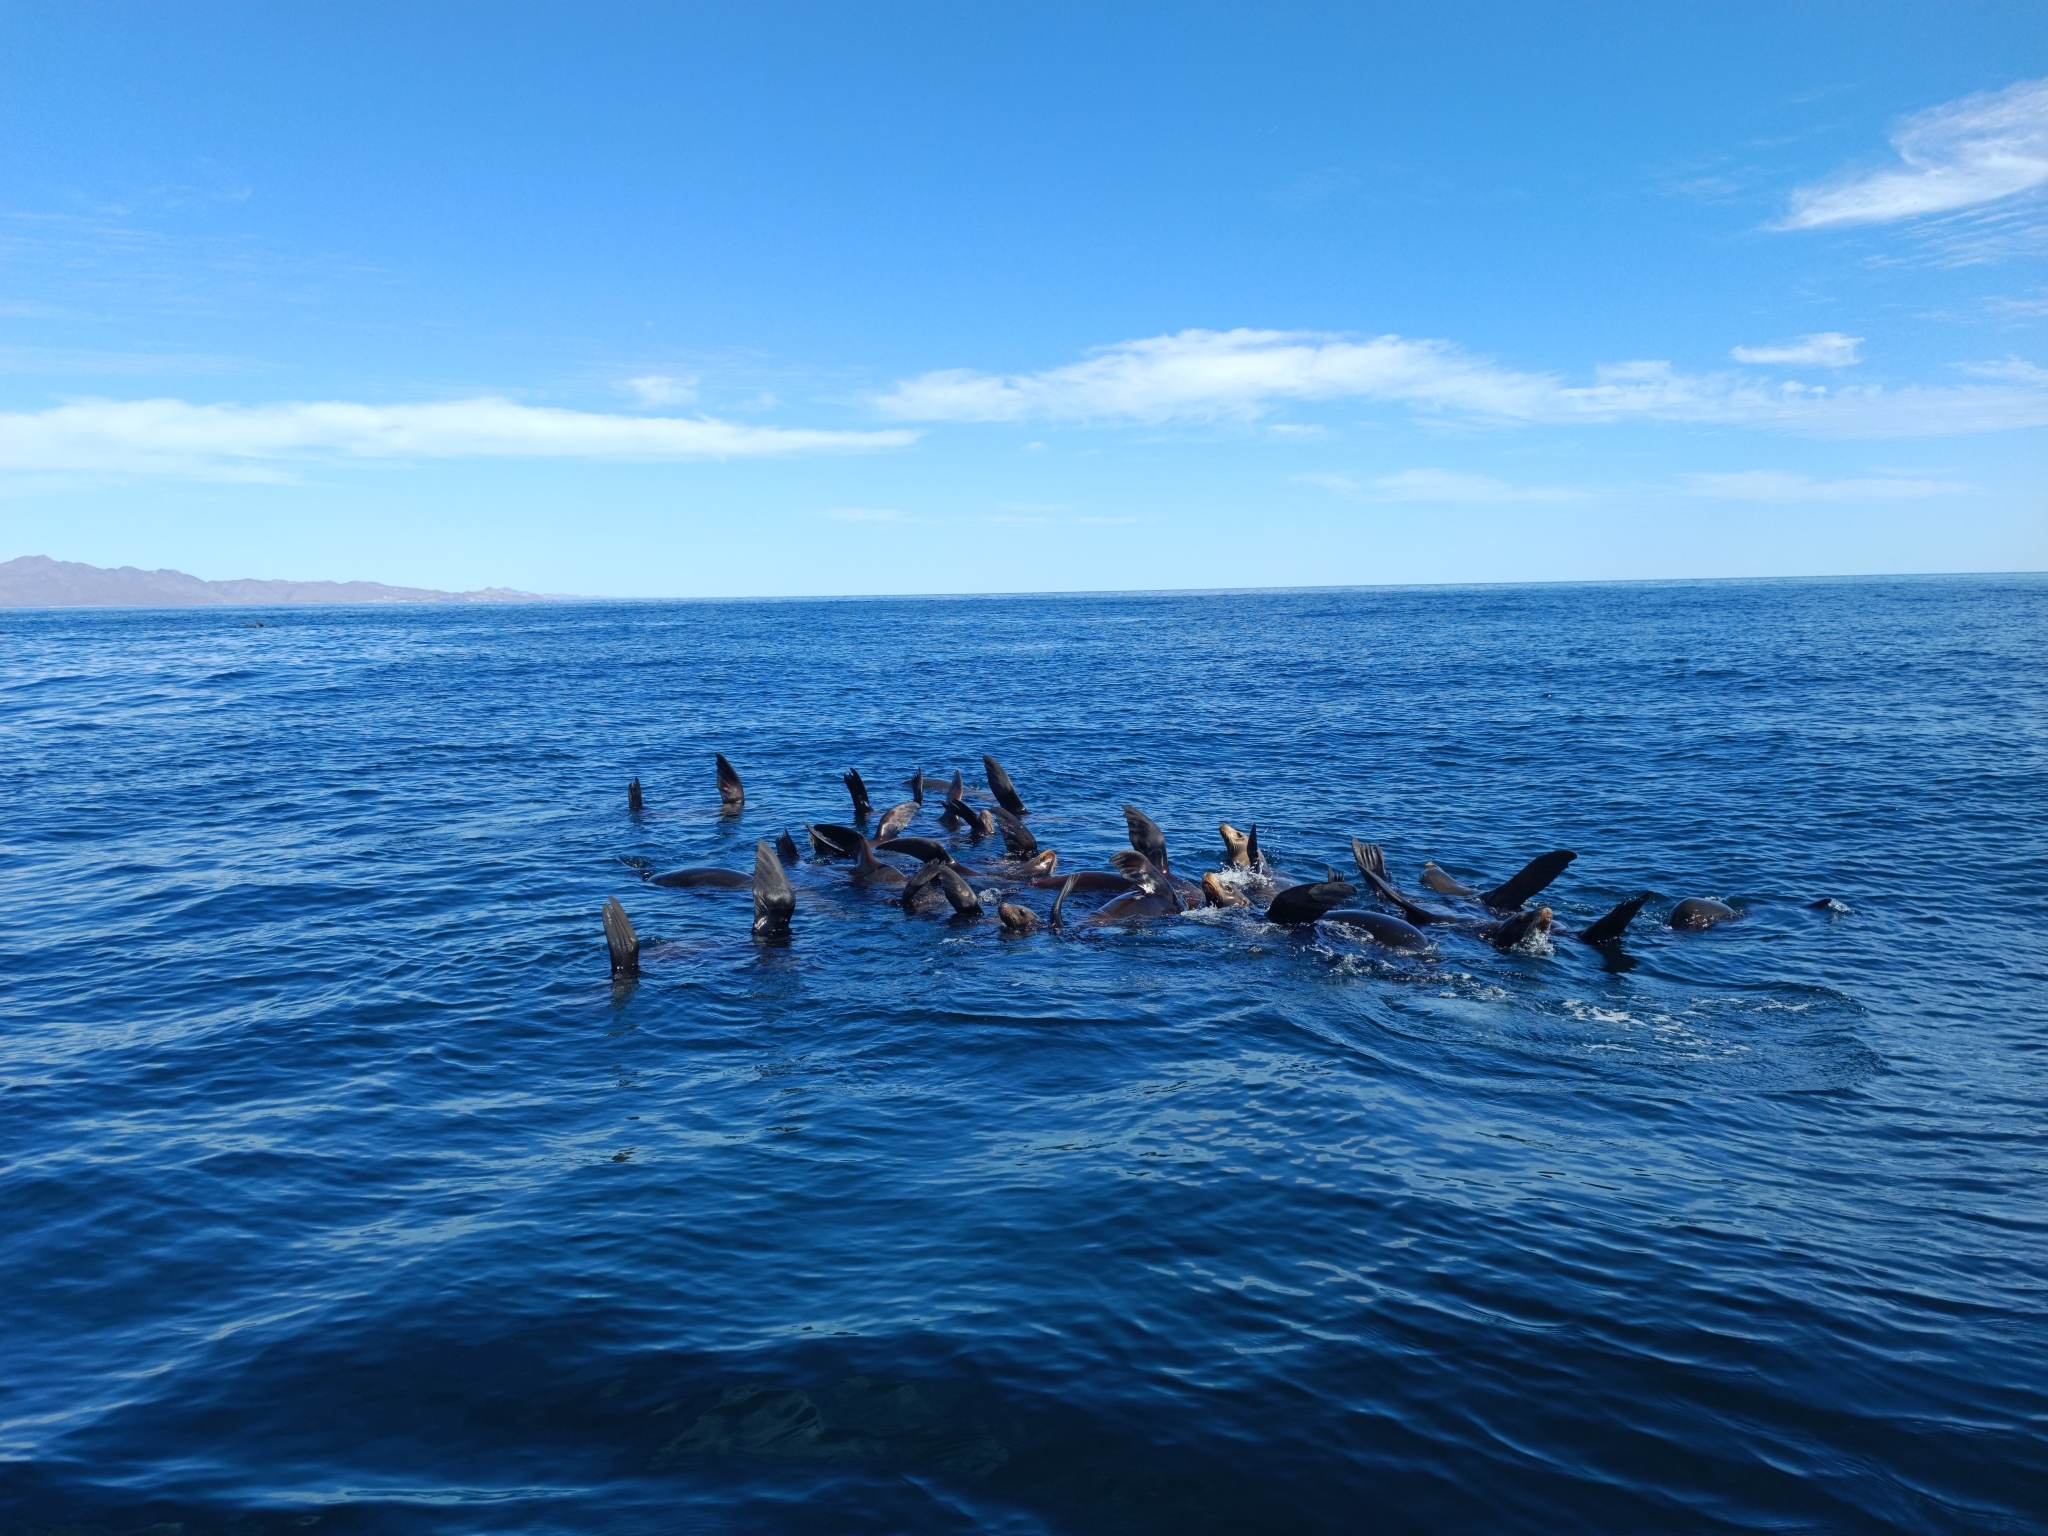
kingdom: Animalia
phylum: Chordata
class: Mammalia
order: Carnivora
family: Otariidae
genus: Zalophus
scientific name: Zalophus californianus
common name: California sea lion
